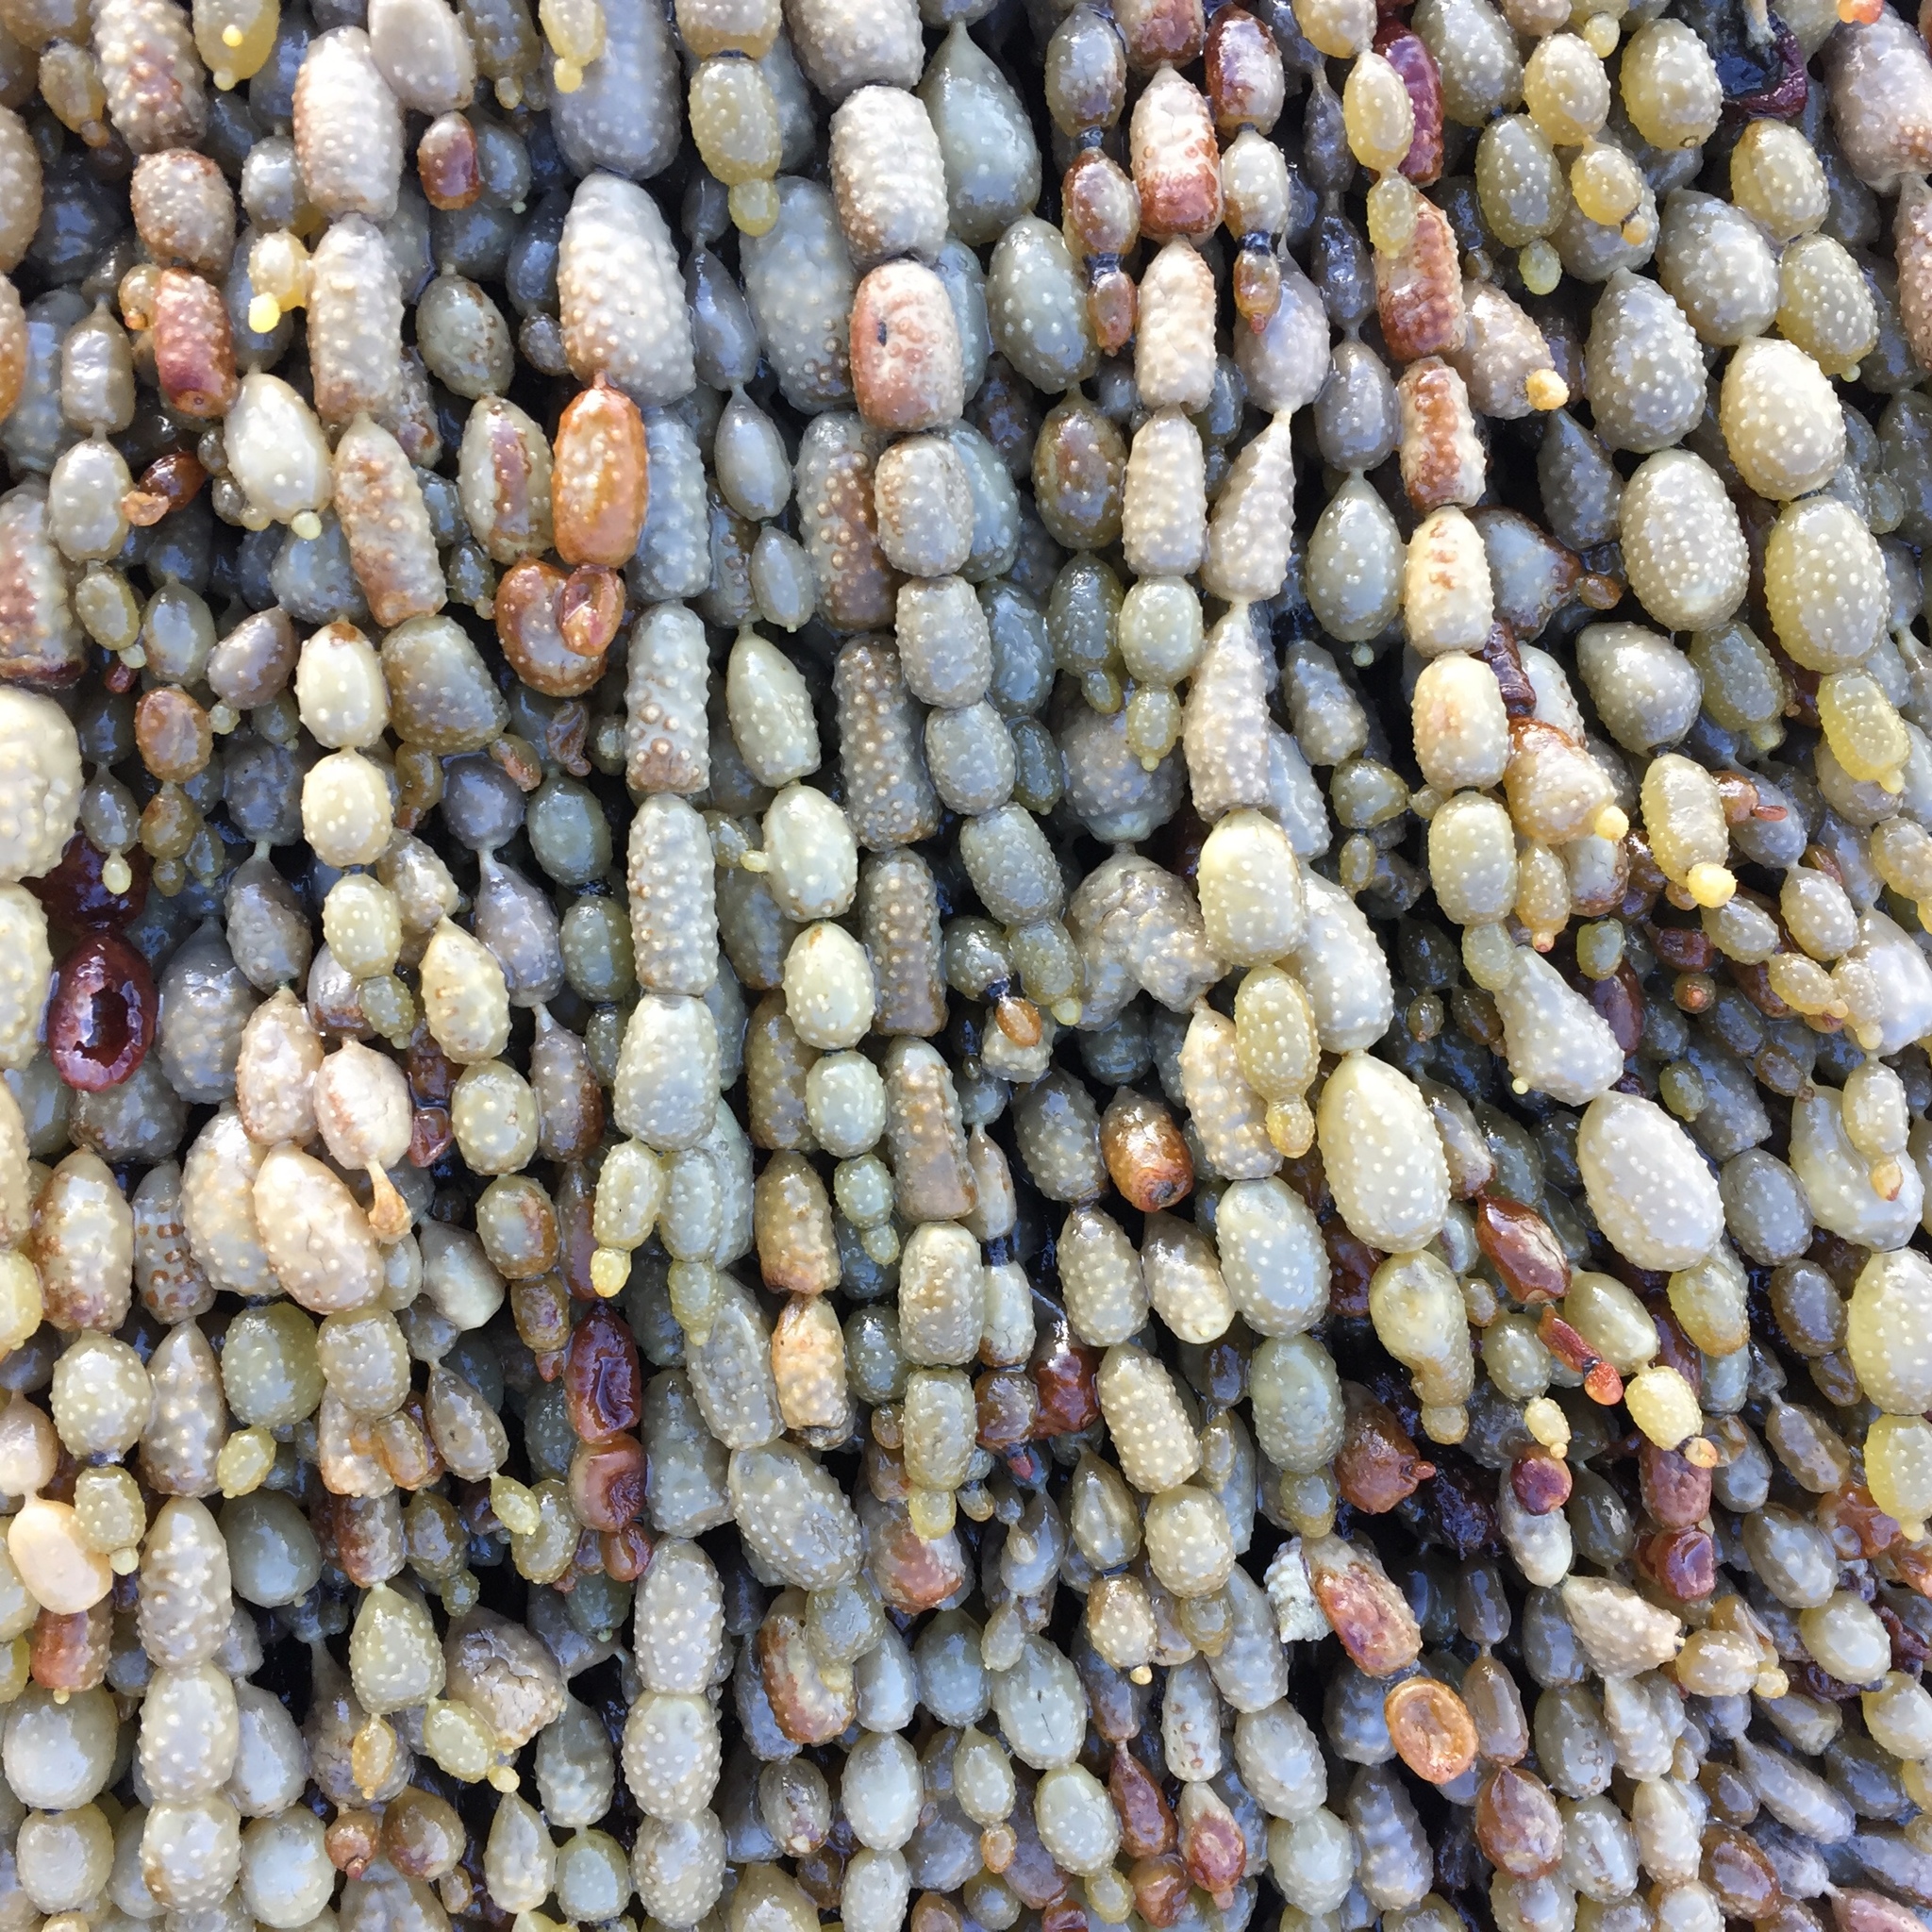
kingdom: Chromista
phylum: Ochrophyta
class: Phaeophyceae
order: Fucales
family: Hormosiraceae
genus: Hormosira
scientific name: Hormosira banksii
